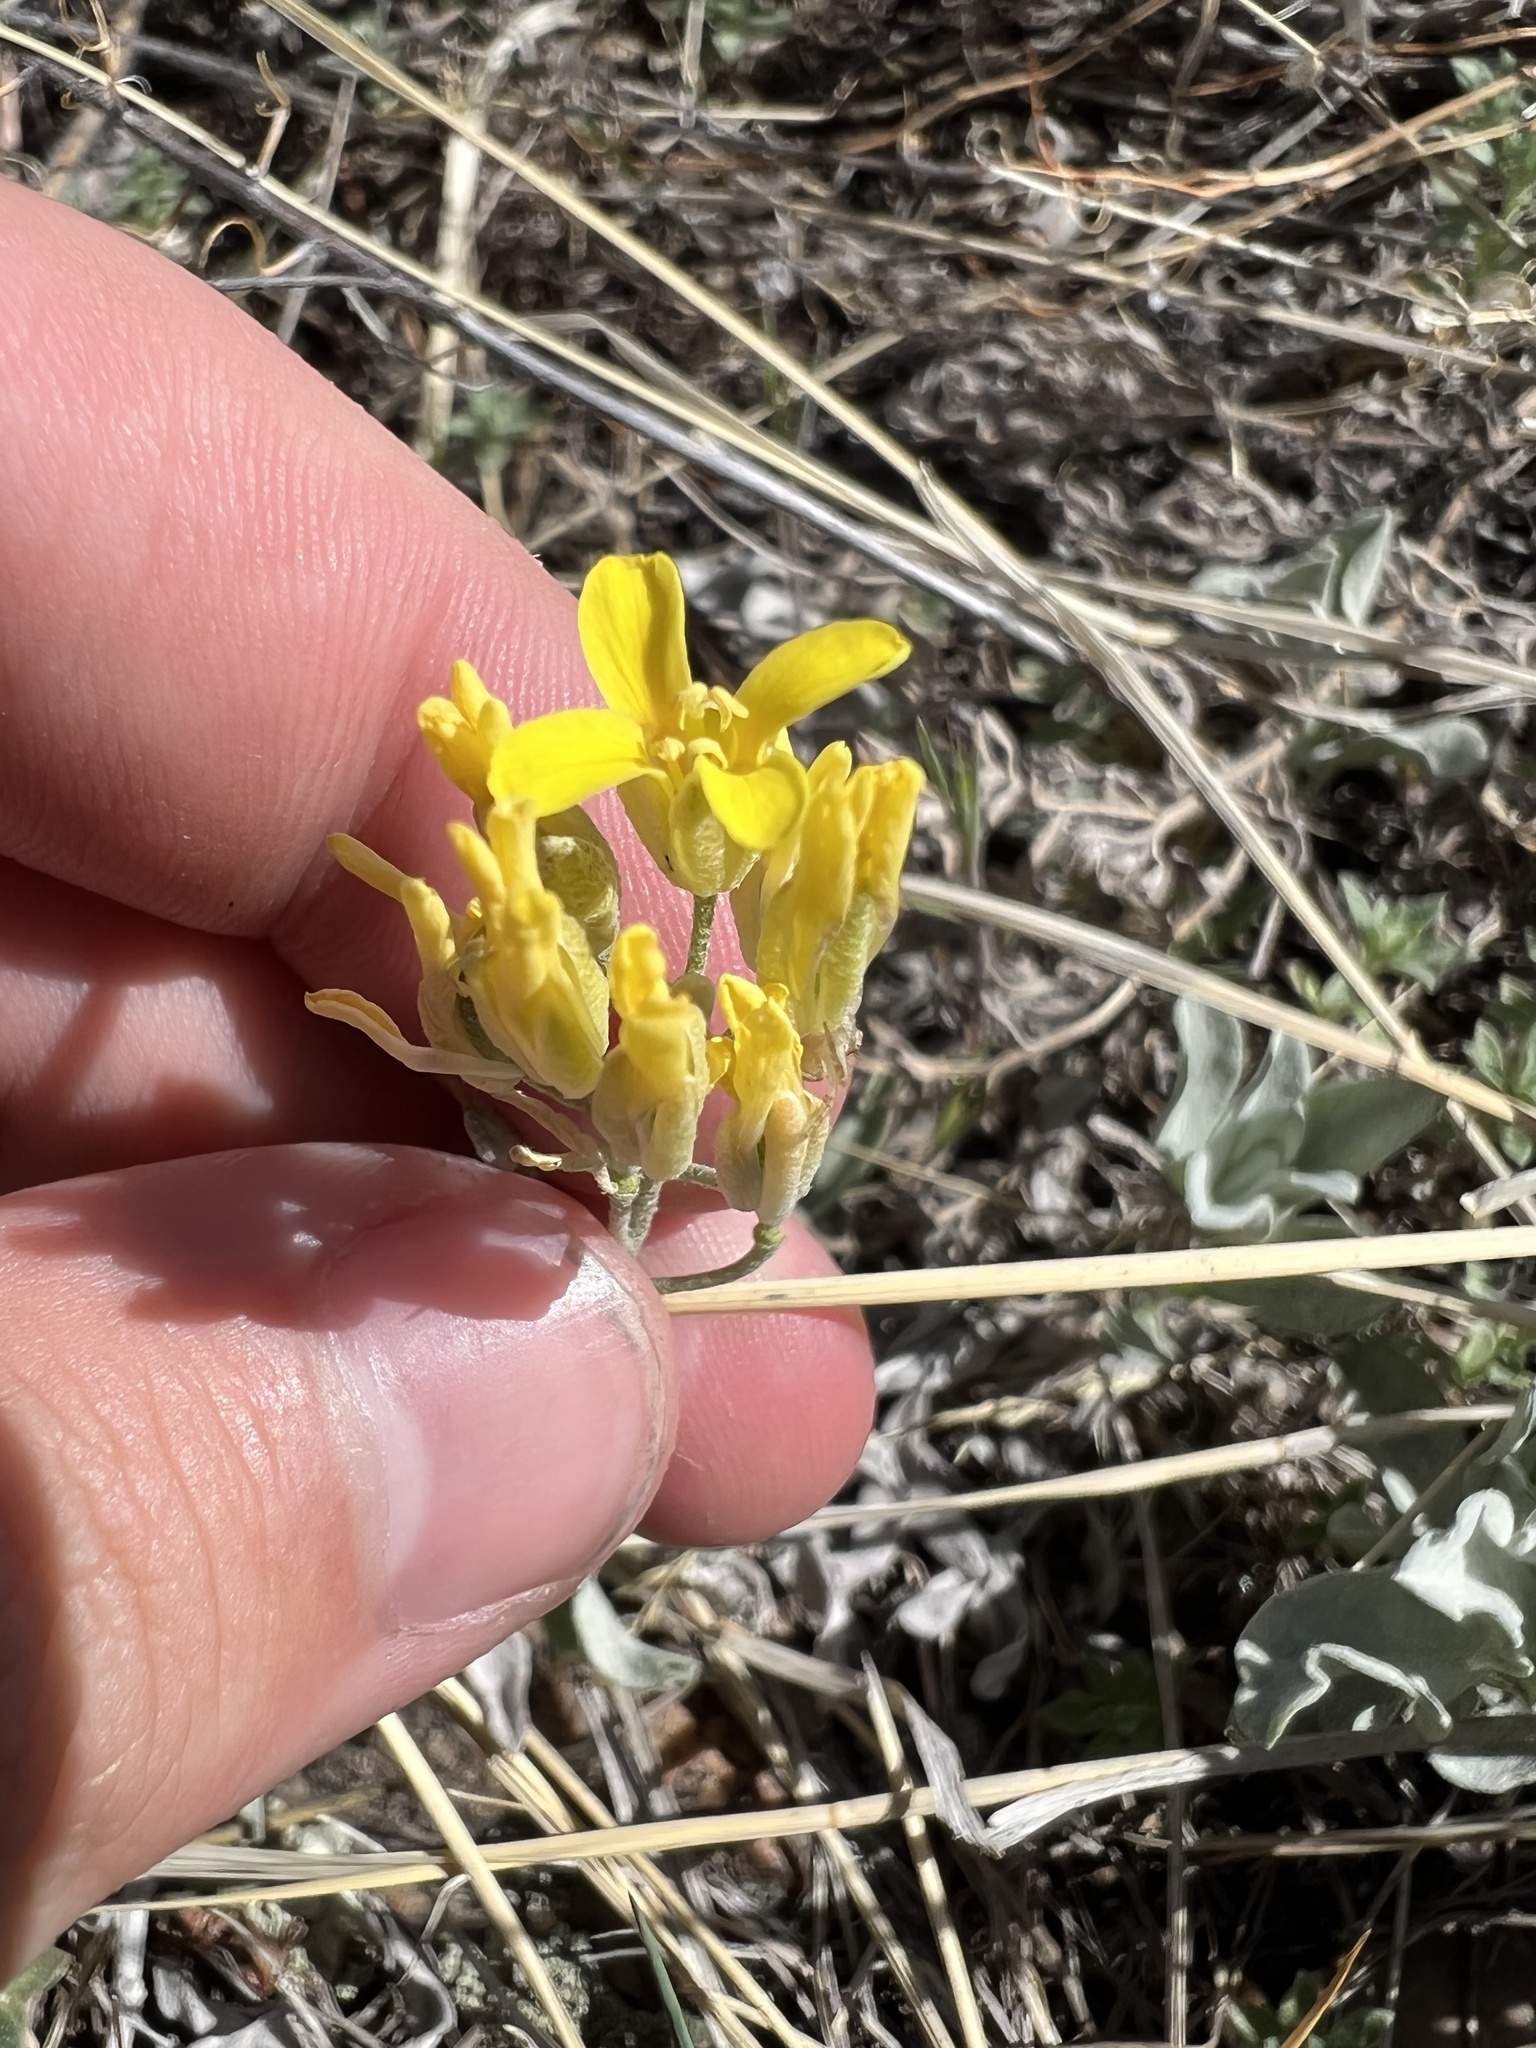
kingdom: Plantae
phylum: Tracheophyta
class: Magnoliopsida
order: Brassicales
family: Brassicaceae
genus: Physaria
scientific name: Physaria montana
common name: Mountain bladderpod
